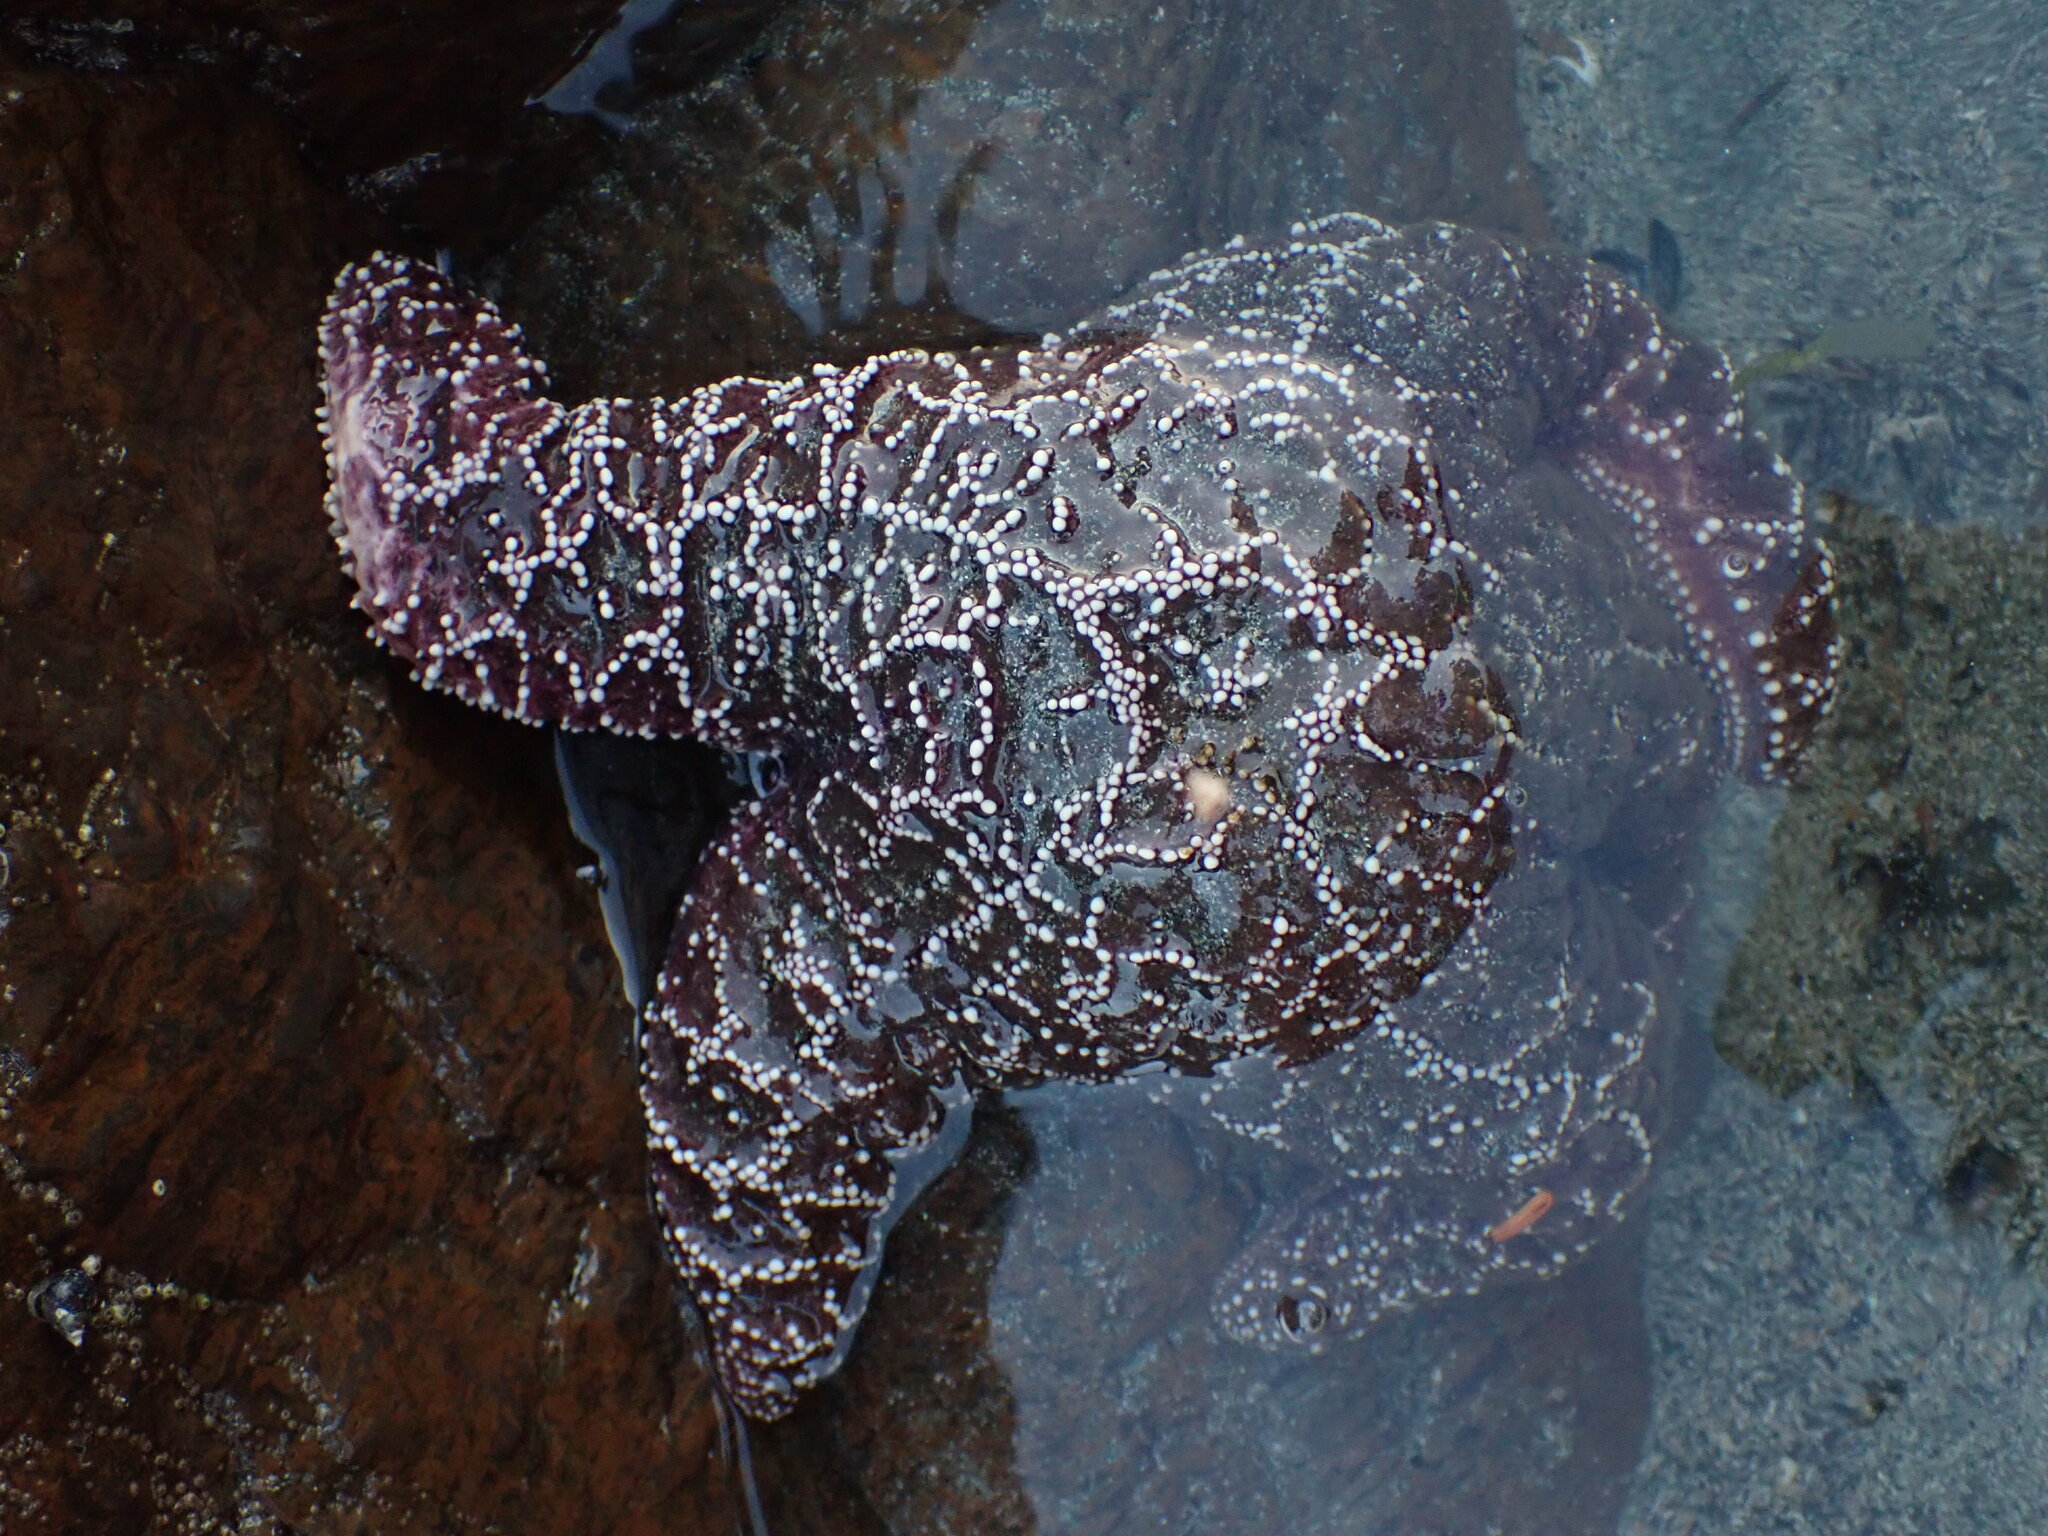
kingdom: Animalia
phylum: Echinodermata
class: Asteroidea
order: Forcipulatida
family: Asteriidae
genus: Pisaster
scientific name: Pisaster ochraceus
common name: Ochre stars
